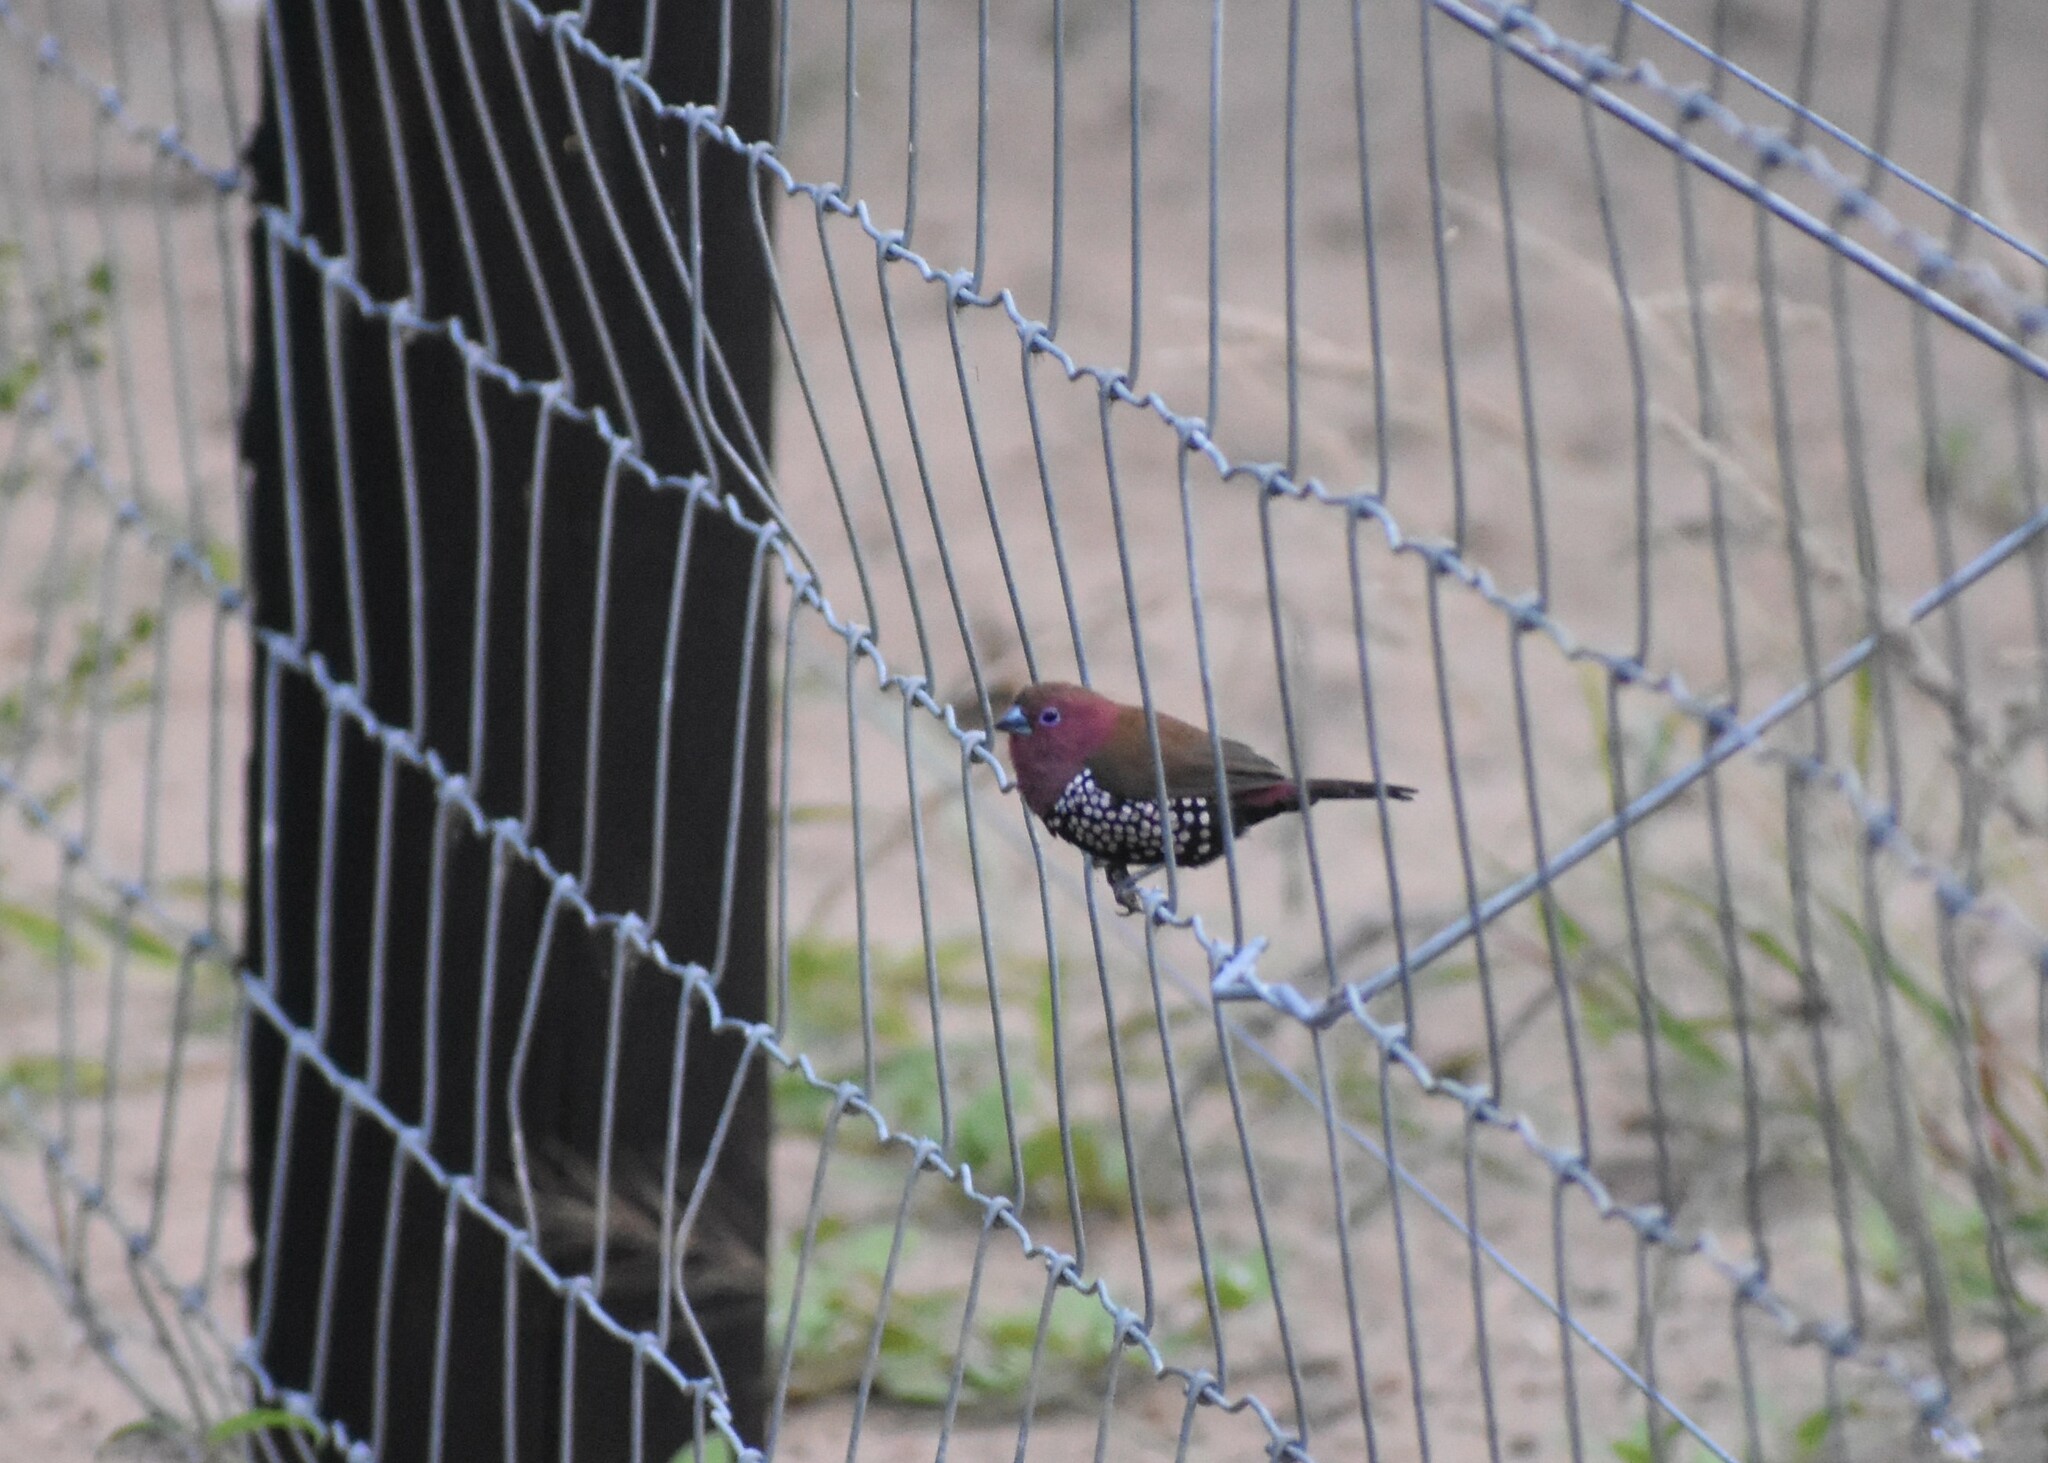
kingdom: Animalia
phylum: Chordata
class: Aves
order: Passeriformes
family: Estrildidae
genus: Hypargos
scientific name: Hypargos margaritatus
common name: Pink-throated twinspot
